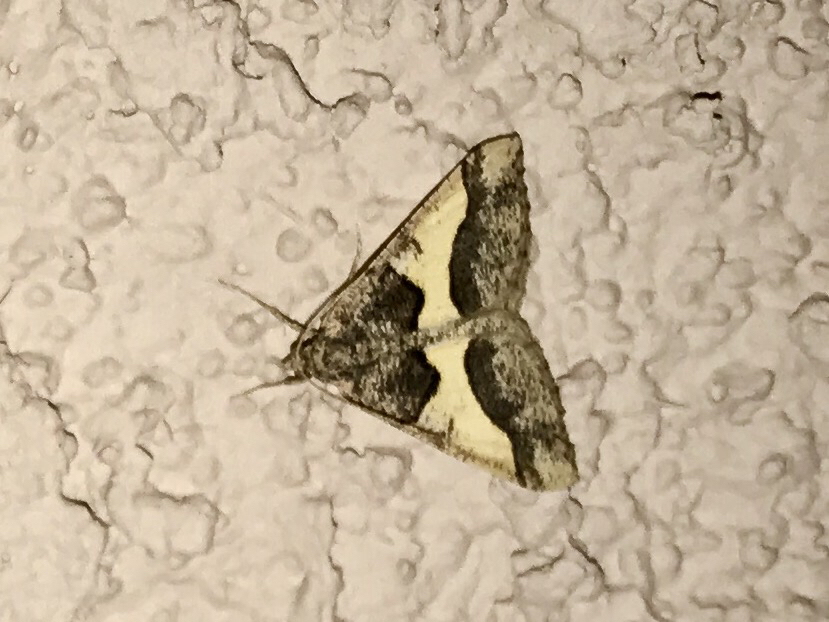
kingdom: Animalia
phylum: Arthropoda
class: Insecta
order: Lepidoptera
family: Geometridae
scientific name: Geometridae
